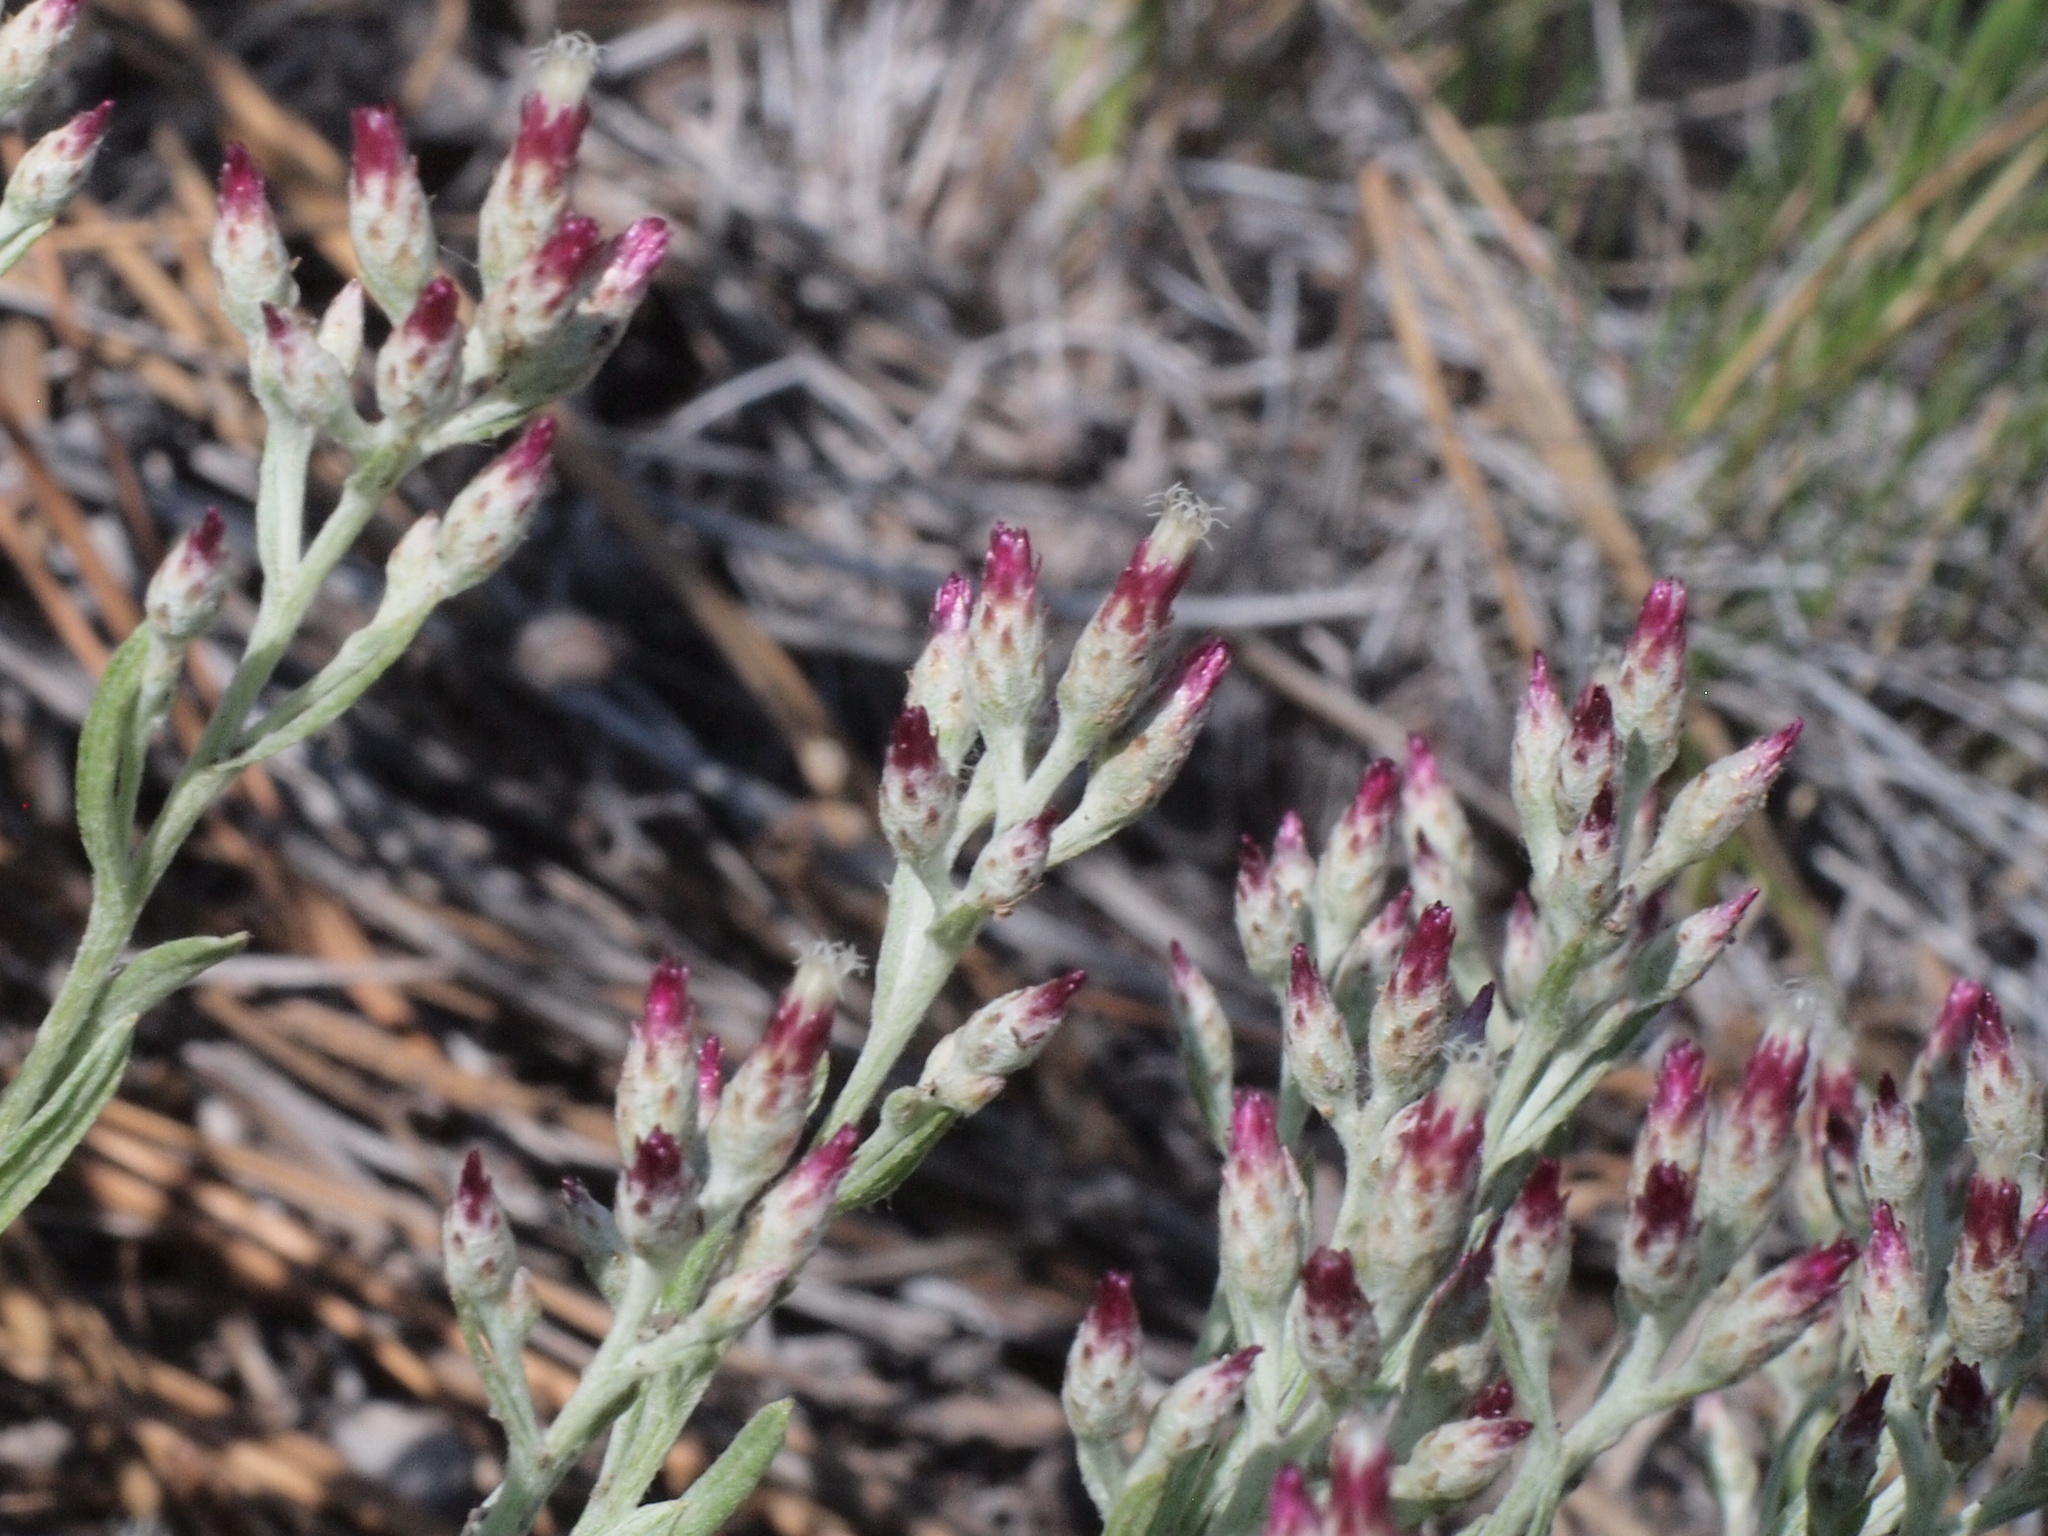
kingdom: Plantae
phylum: Tracheophyta
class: Magnoliopsida
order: Asterales
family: Asteraceae
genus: Antennaria
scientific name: Antennaria geyeri
